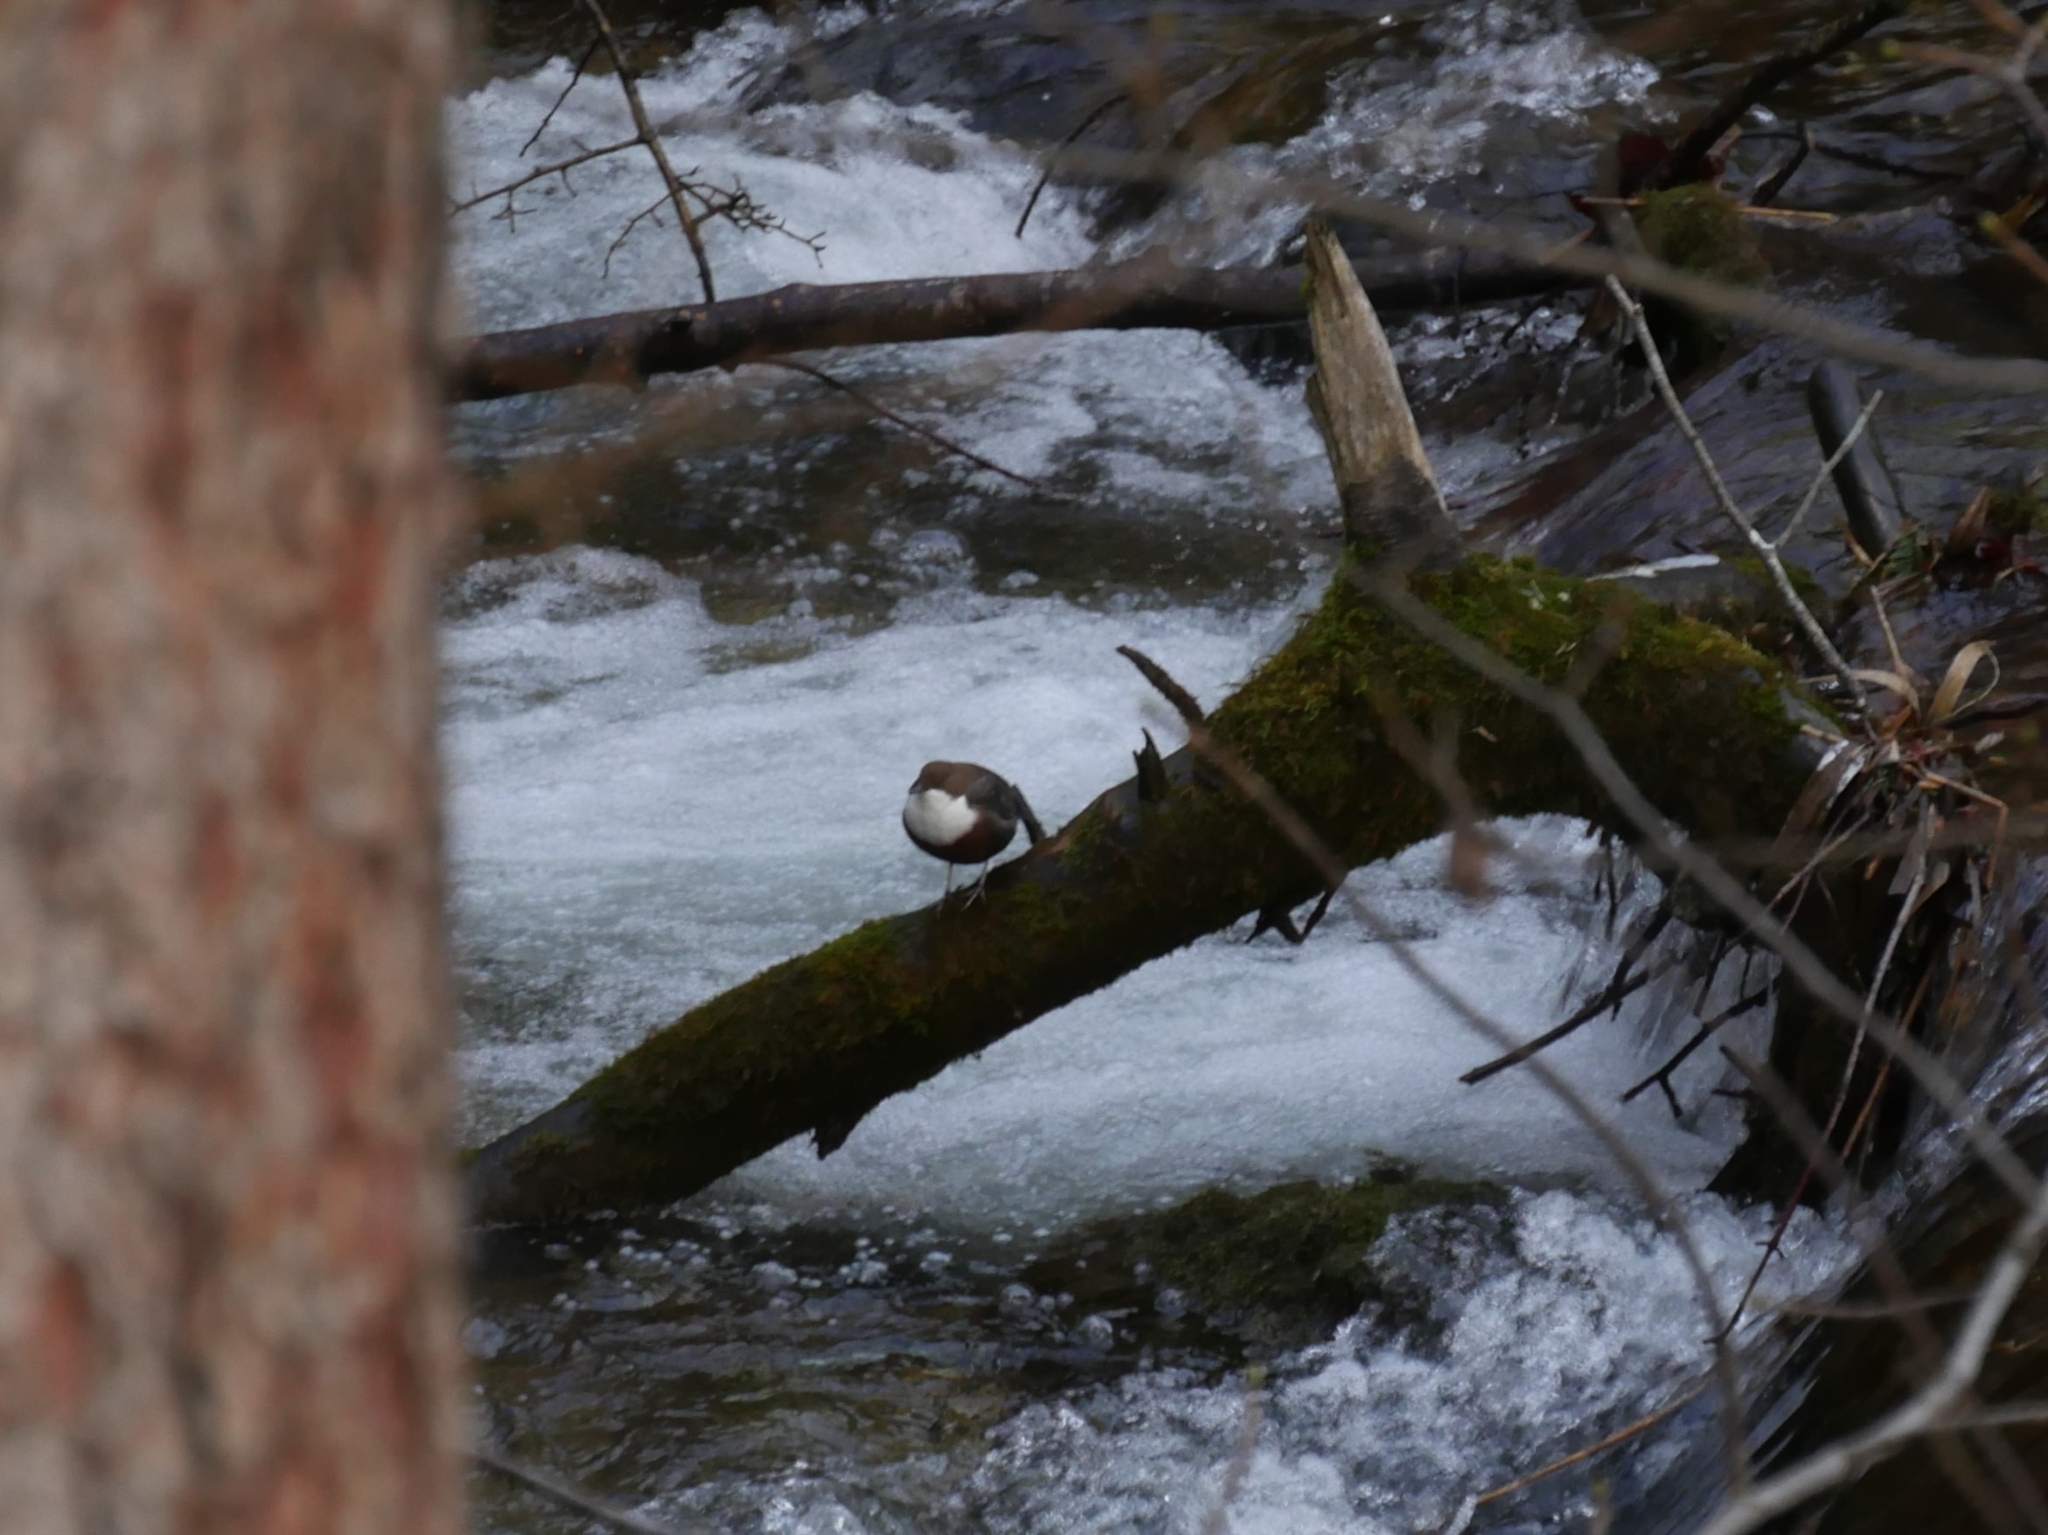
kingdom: Animalia
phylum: Chordata
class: Aves
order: Passeriformes
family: Cinclidae
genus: Cinclus
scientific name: Cinclus cinclus
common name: White-throated dipper
